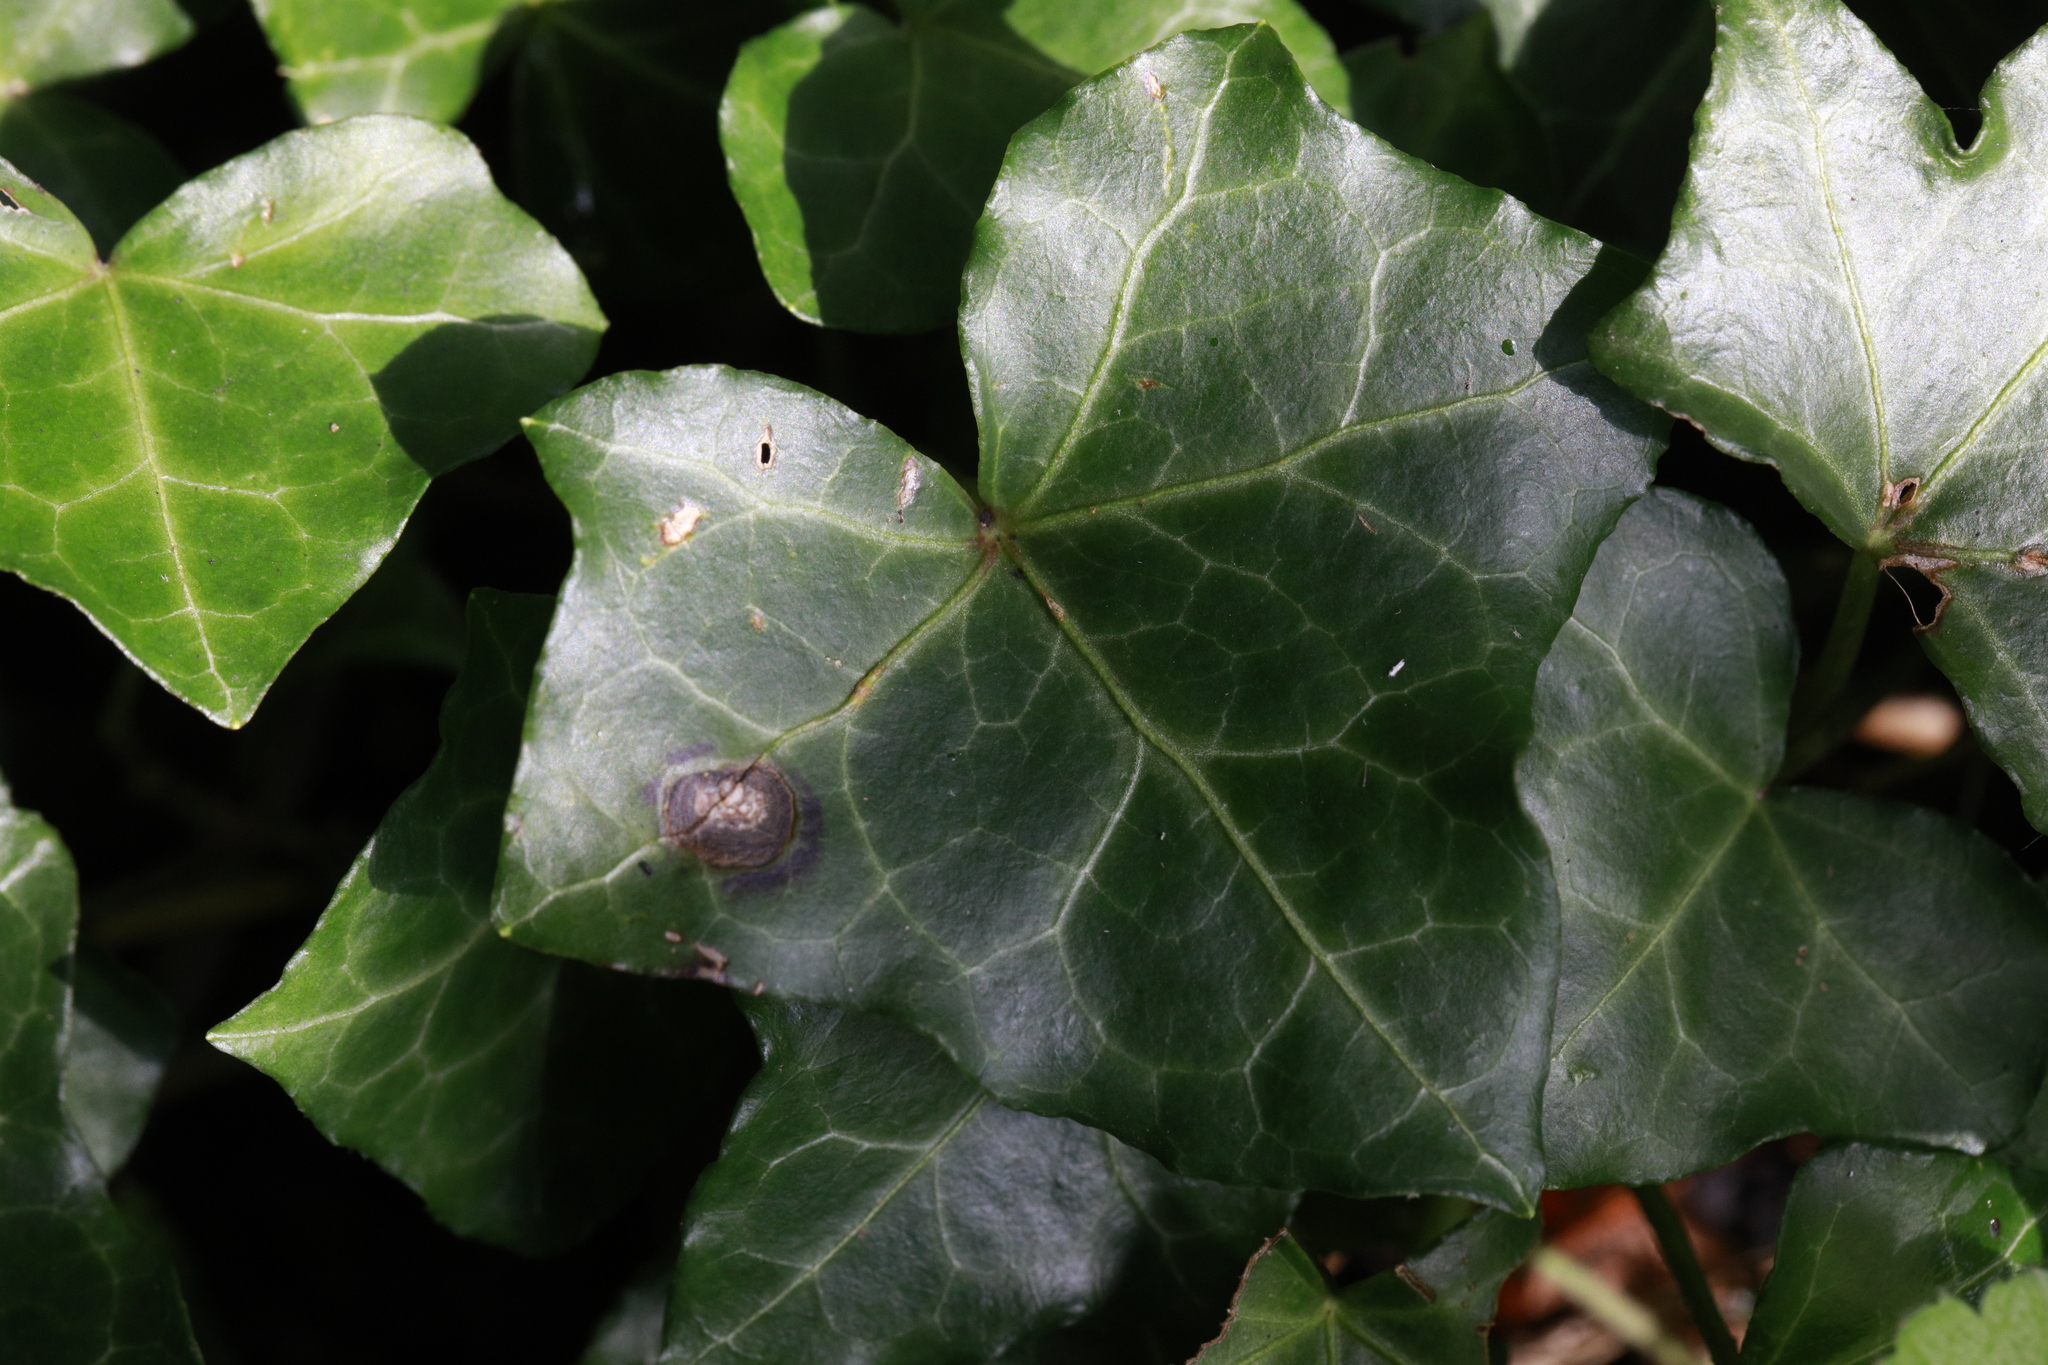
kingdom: Fungi
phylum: Ascomycota
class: Dothideomycetes
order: Pleosporales
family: Didymellaceae
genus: Boeremia
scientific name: Boeremia hedericola
